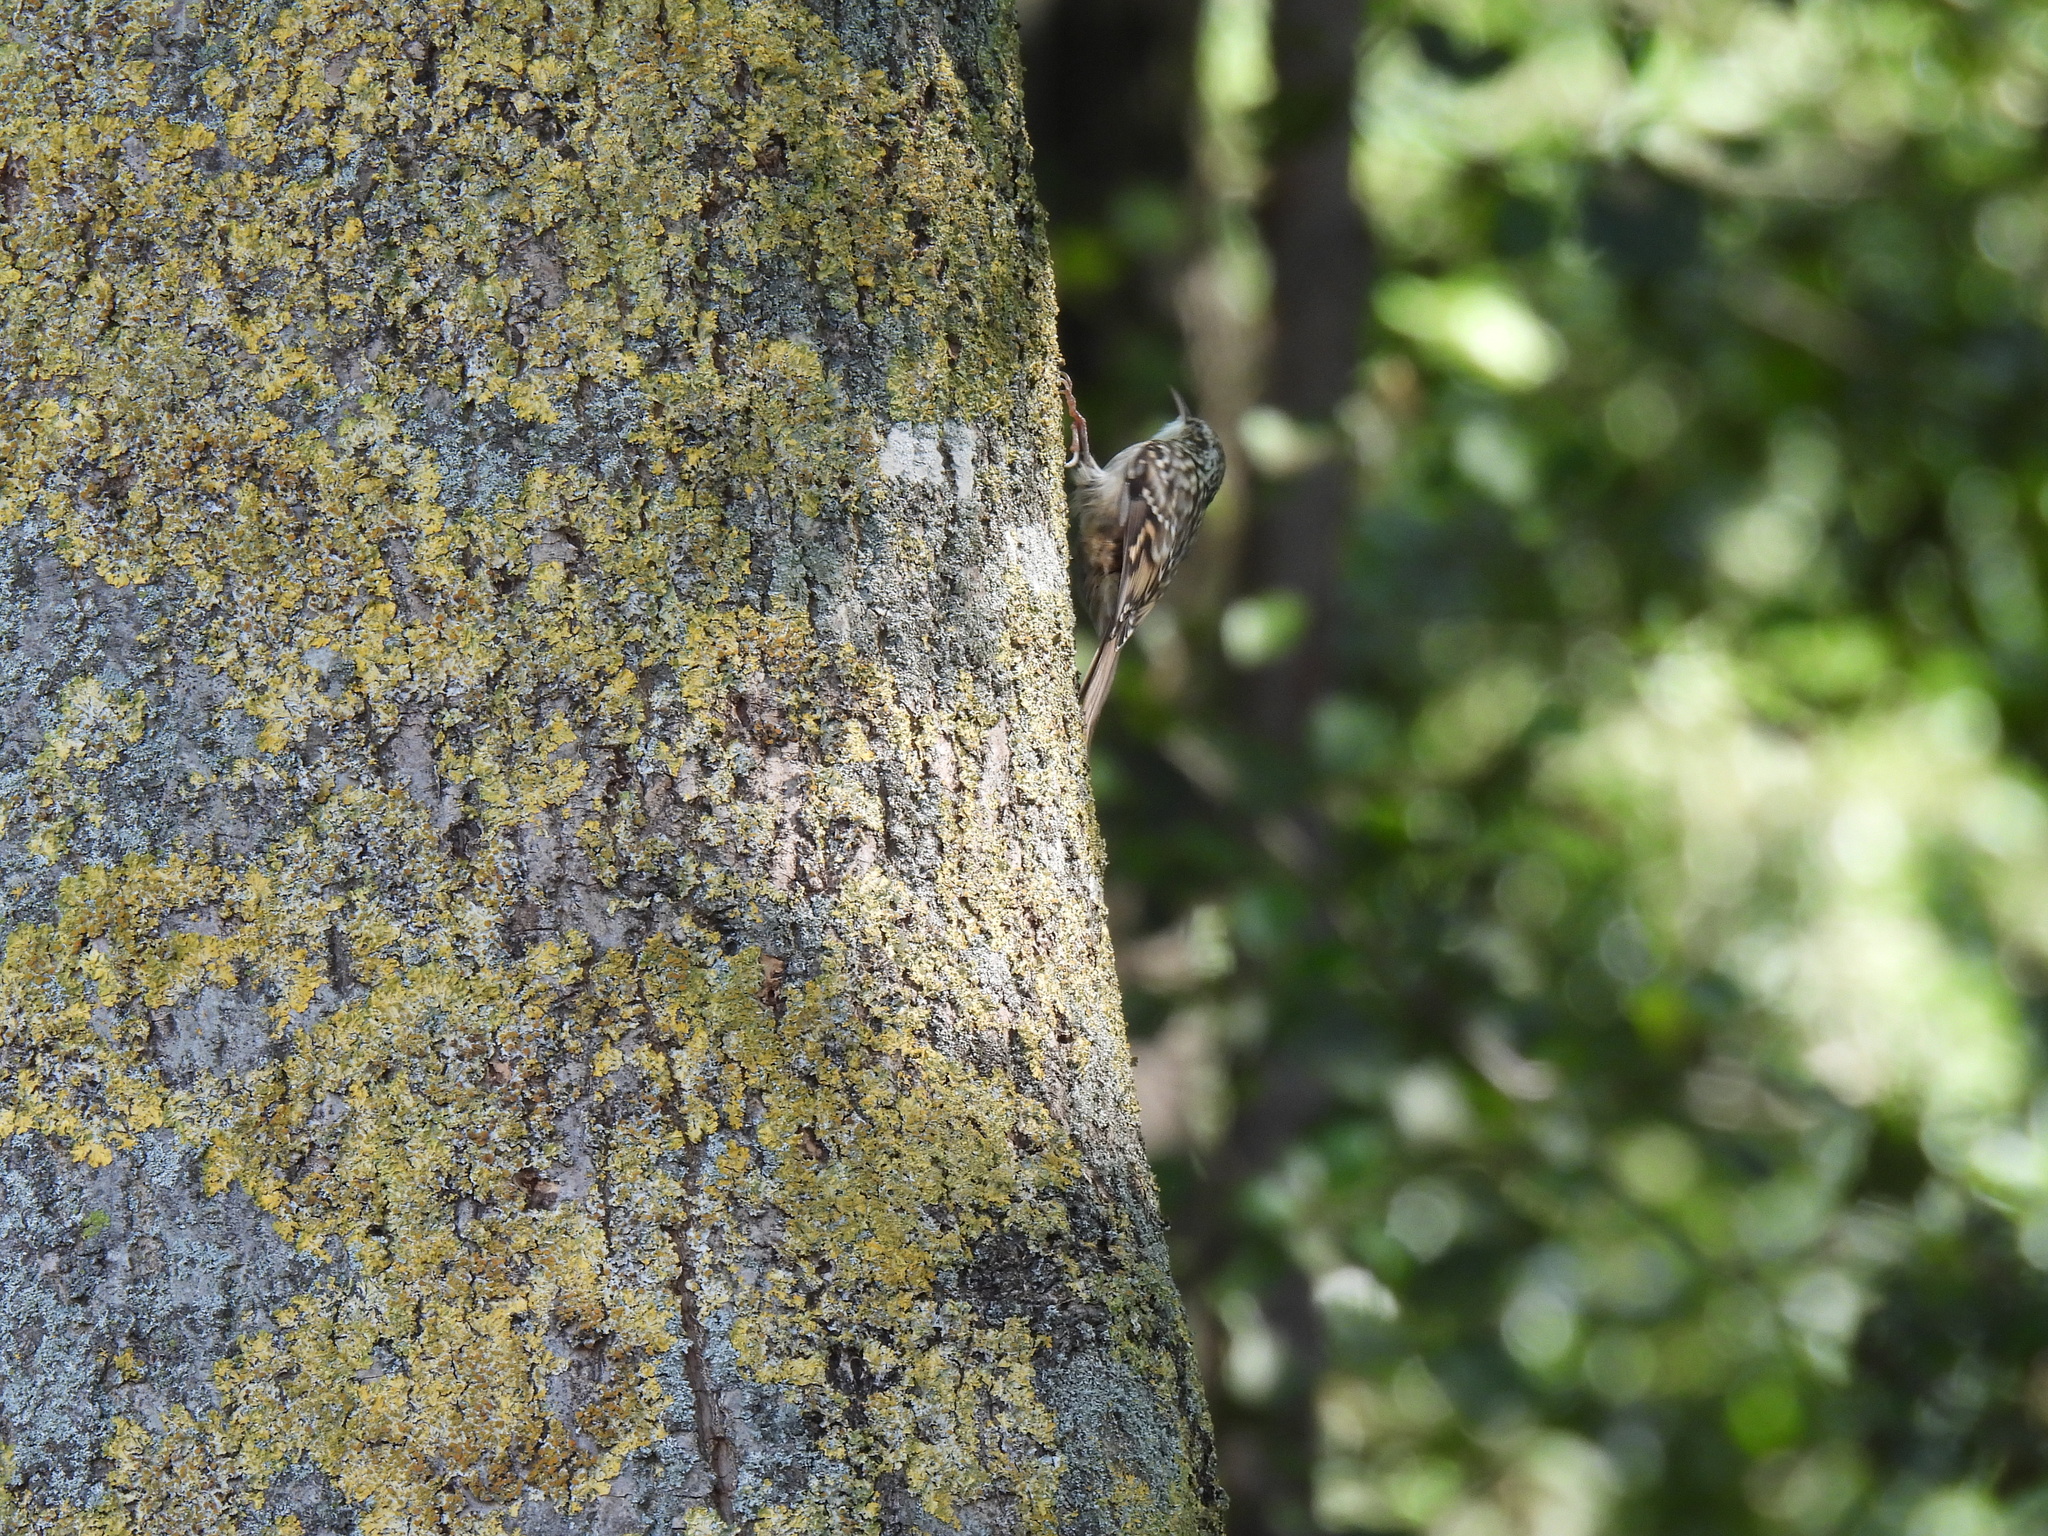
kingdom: Animalia
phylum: Chordata
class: Aves
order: Passeriformes
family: Certhiidae
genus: Certhia
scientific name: Certhia brachydactyla
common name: Short-toed treecreeper
